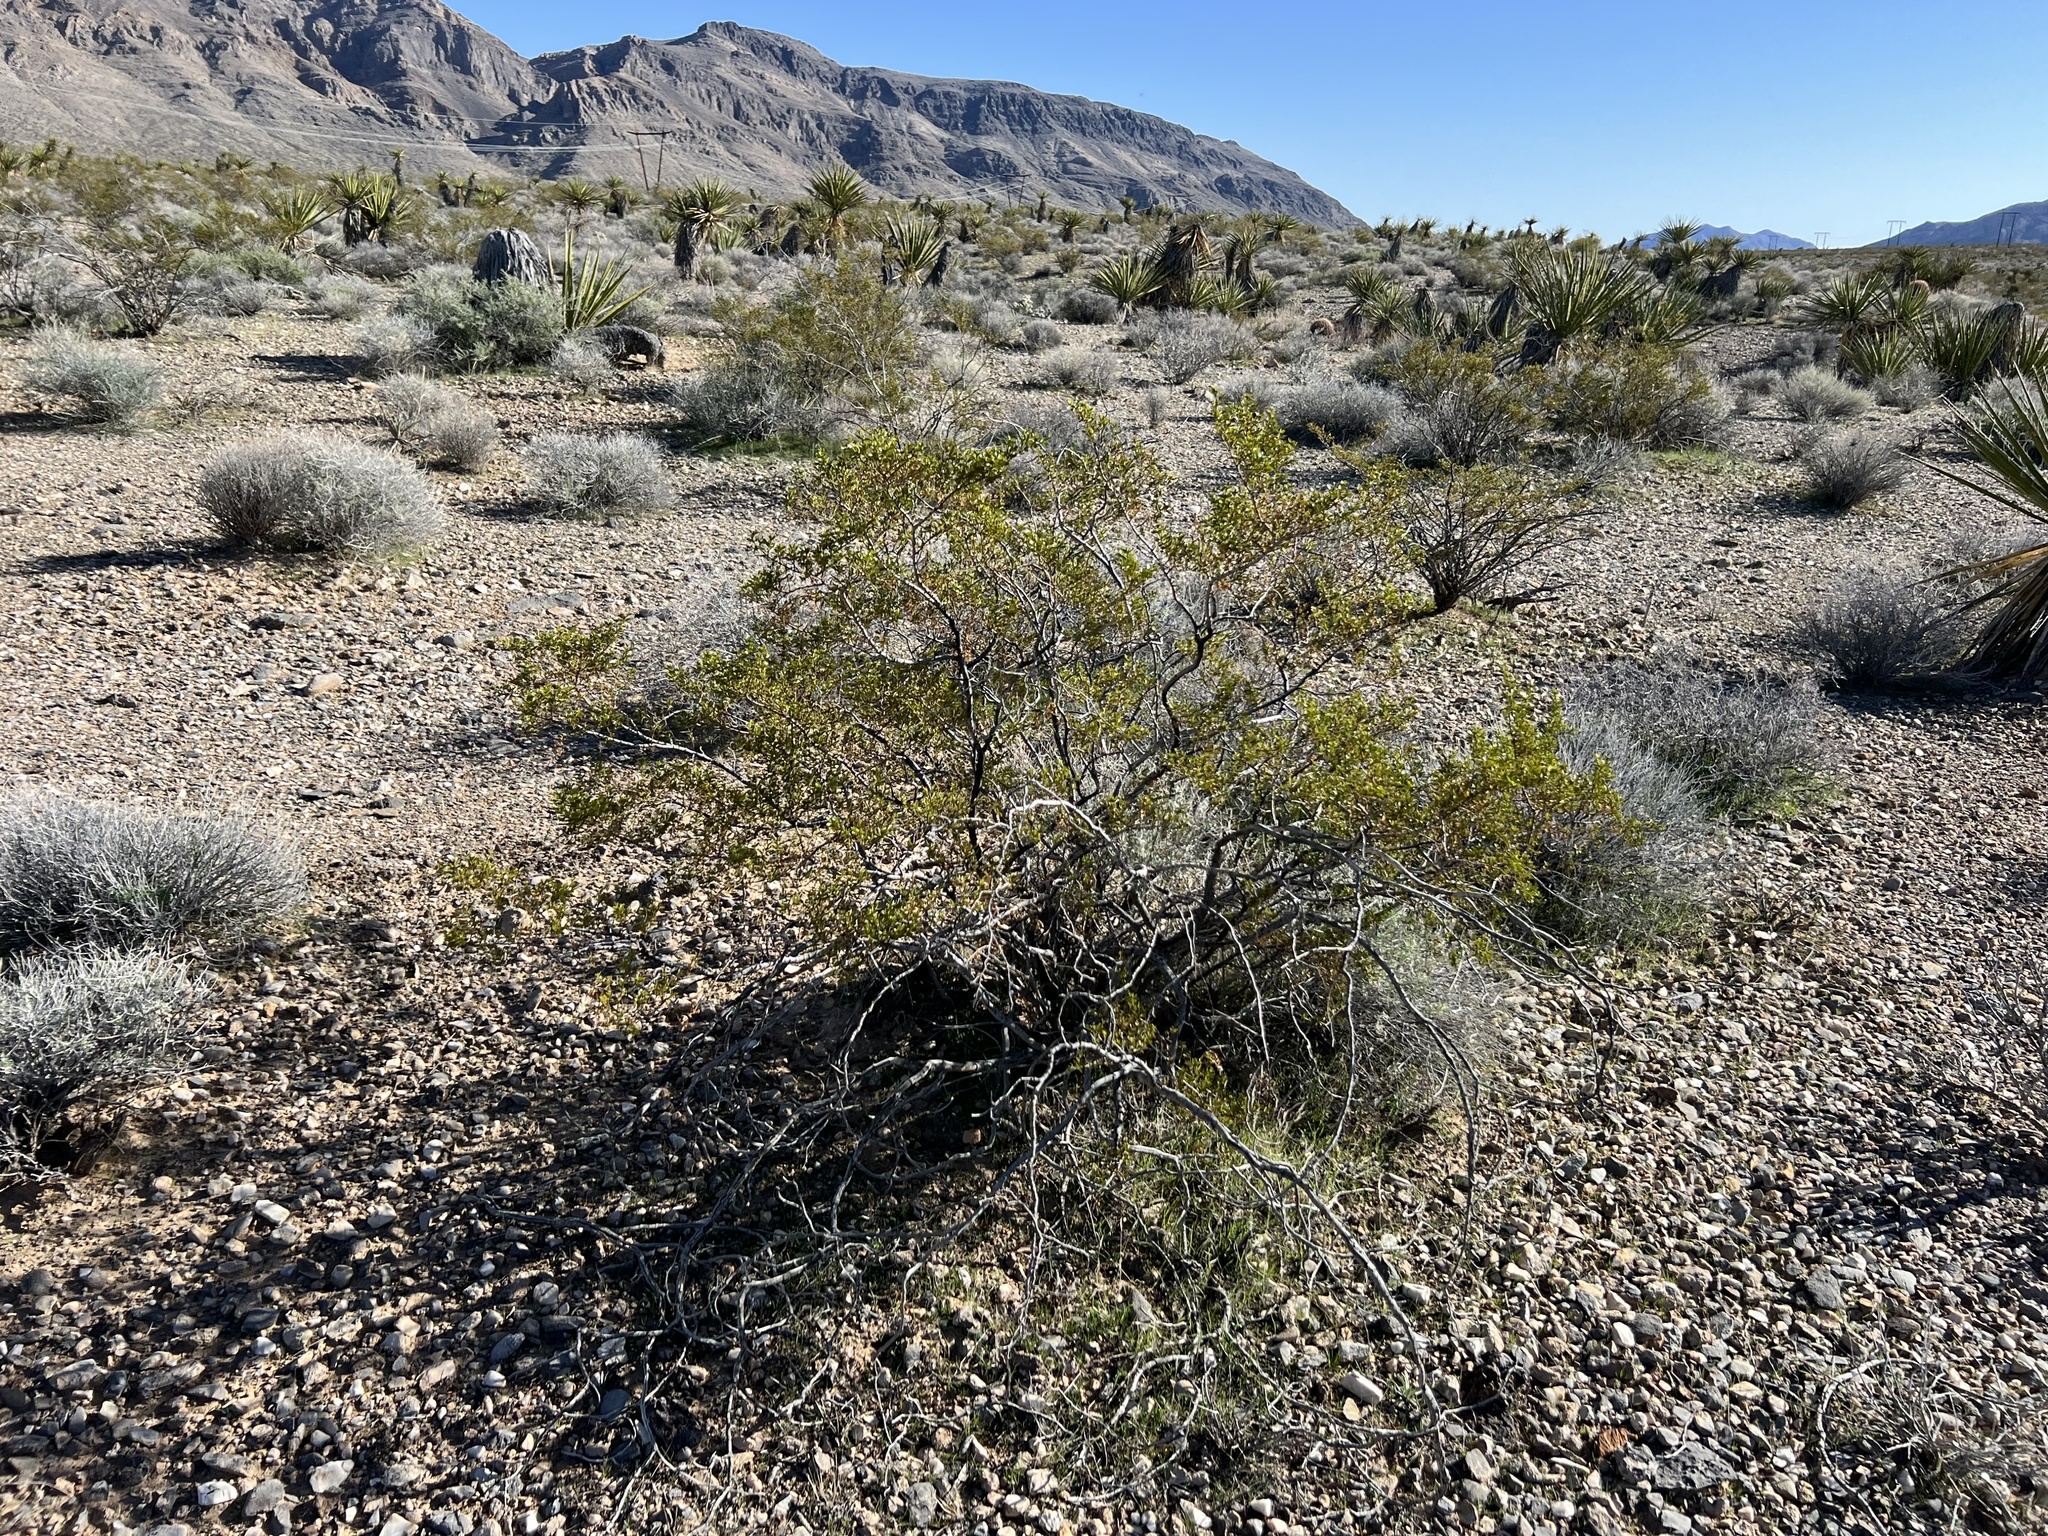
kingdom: Plantae
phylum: Tracheophyta
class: Magnoliopsida
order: Zygophyllales
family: Zygophyllaceae
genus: Larrea
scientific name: Larrea tridentata
